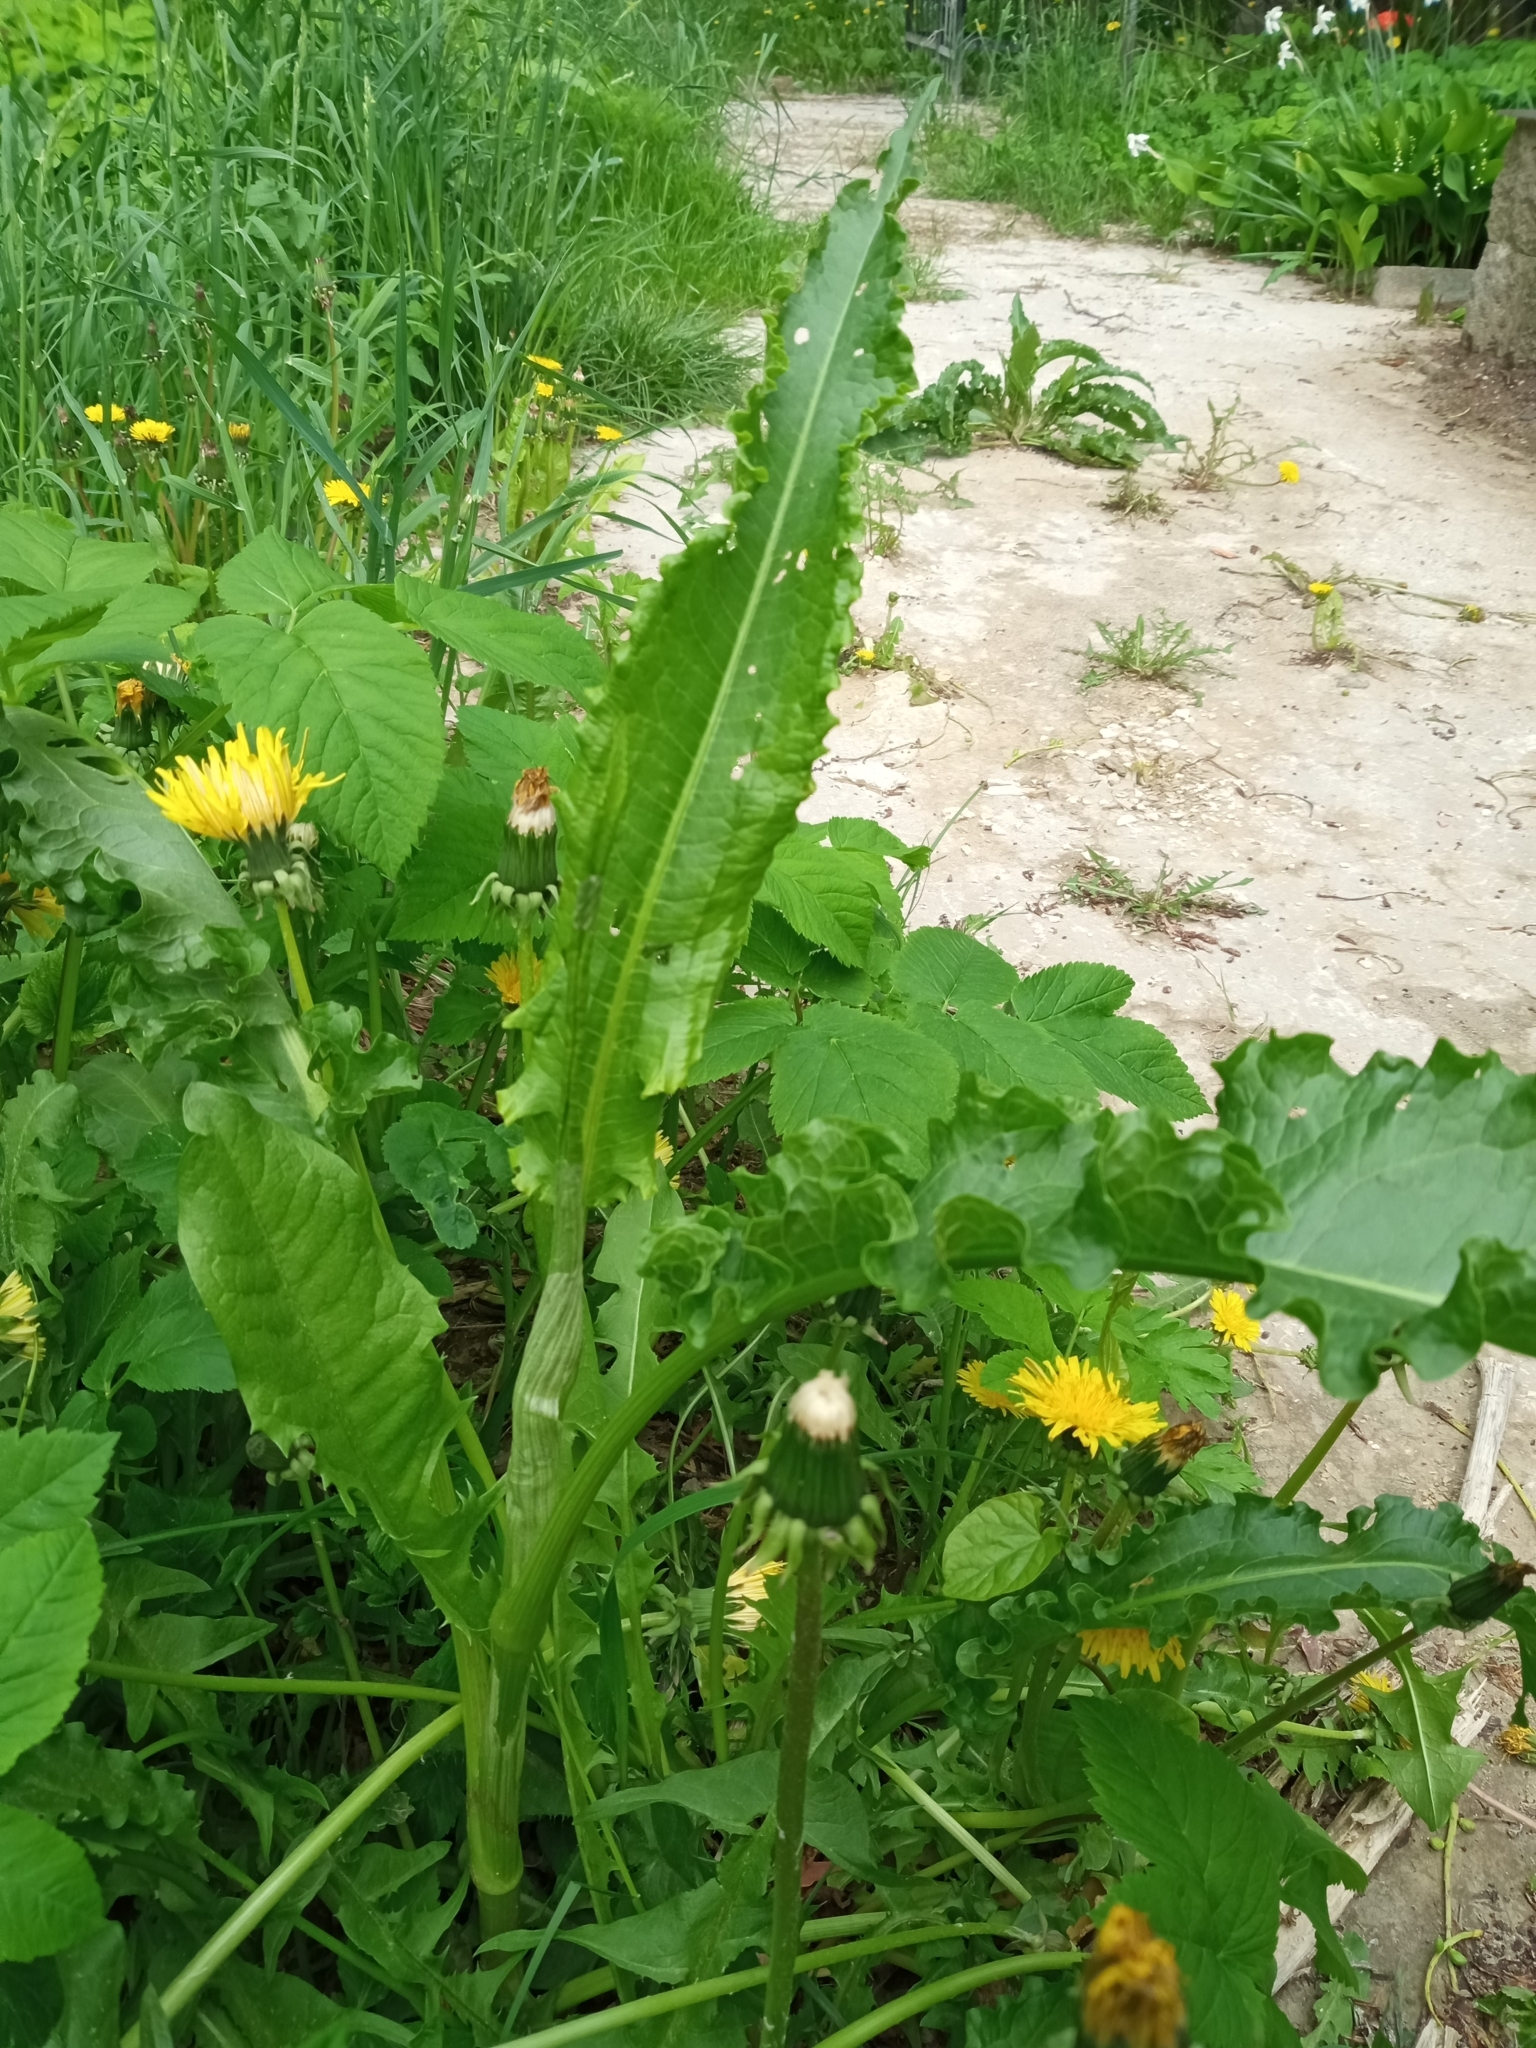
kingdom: Plantae
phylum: Tracheophyta
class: Magnoliopsida
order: Caryophyllales
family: Polygonaceae
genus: Rumex
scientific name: Rumex crispus
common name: Curled dock
